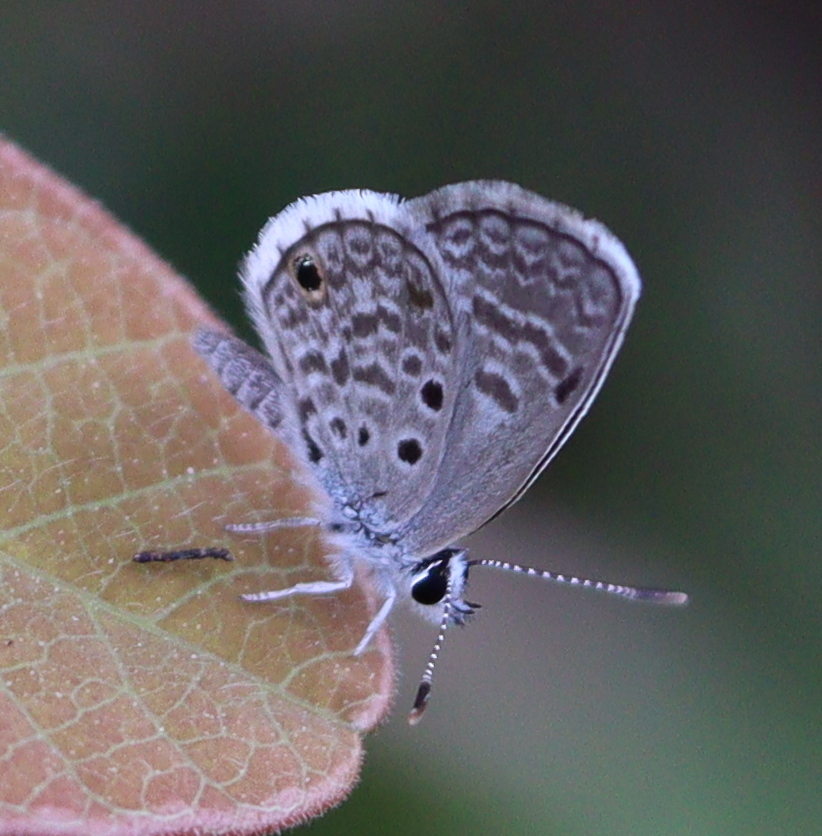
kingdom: Animalia
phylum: Arthropoda
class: Insecta
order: Lepidoptera
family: Lycaenidae
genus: Hemiargus
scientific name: Hemiargus hanno
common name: Common blue
